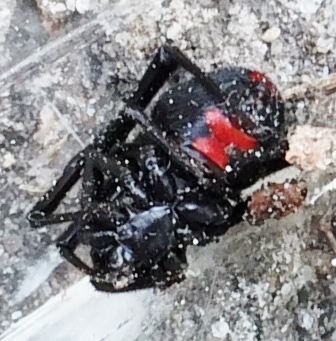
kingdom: Animalia
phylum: Arthropoda
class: Arachnida
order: Araneae
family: Theridiidae
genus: Latrodectus
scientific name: Latrodectus mactans
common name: Cobweb spiders
